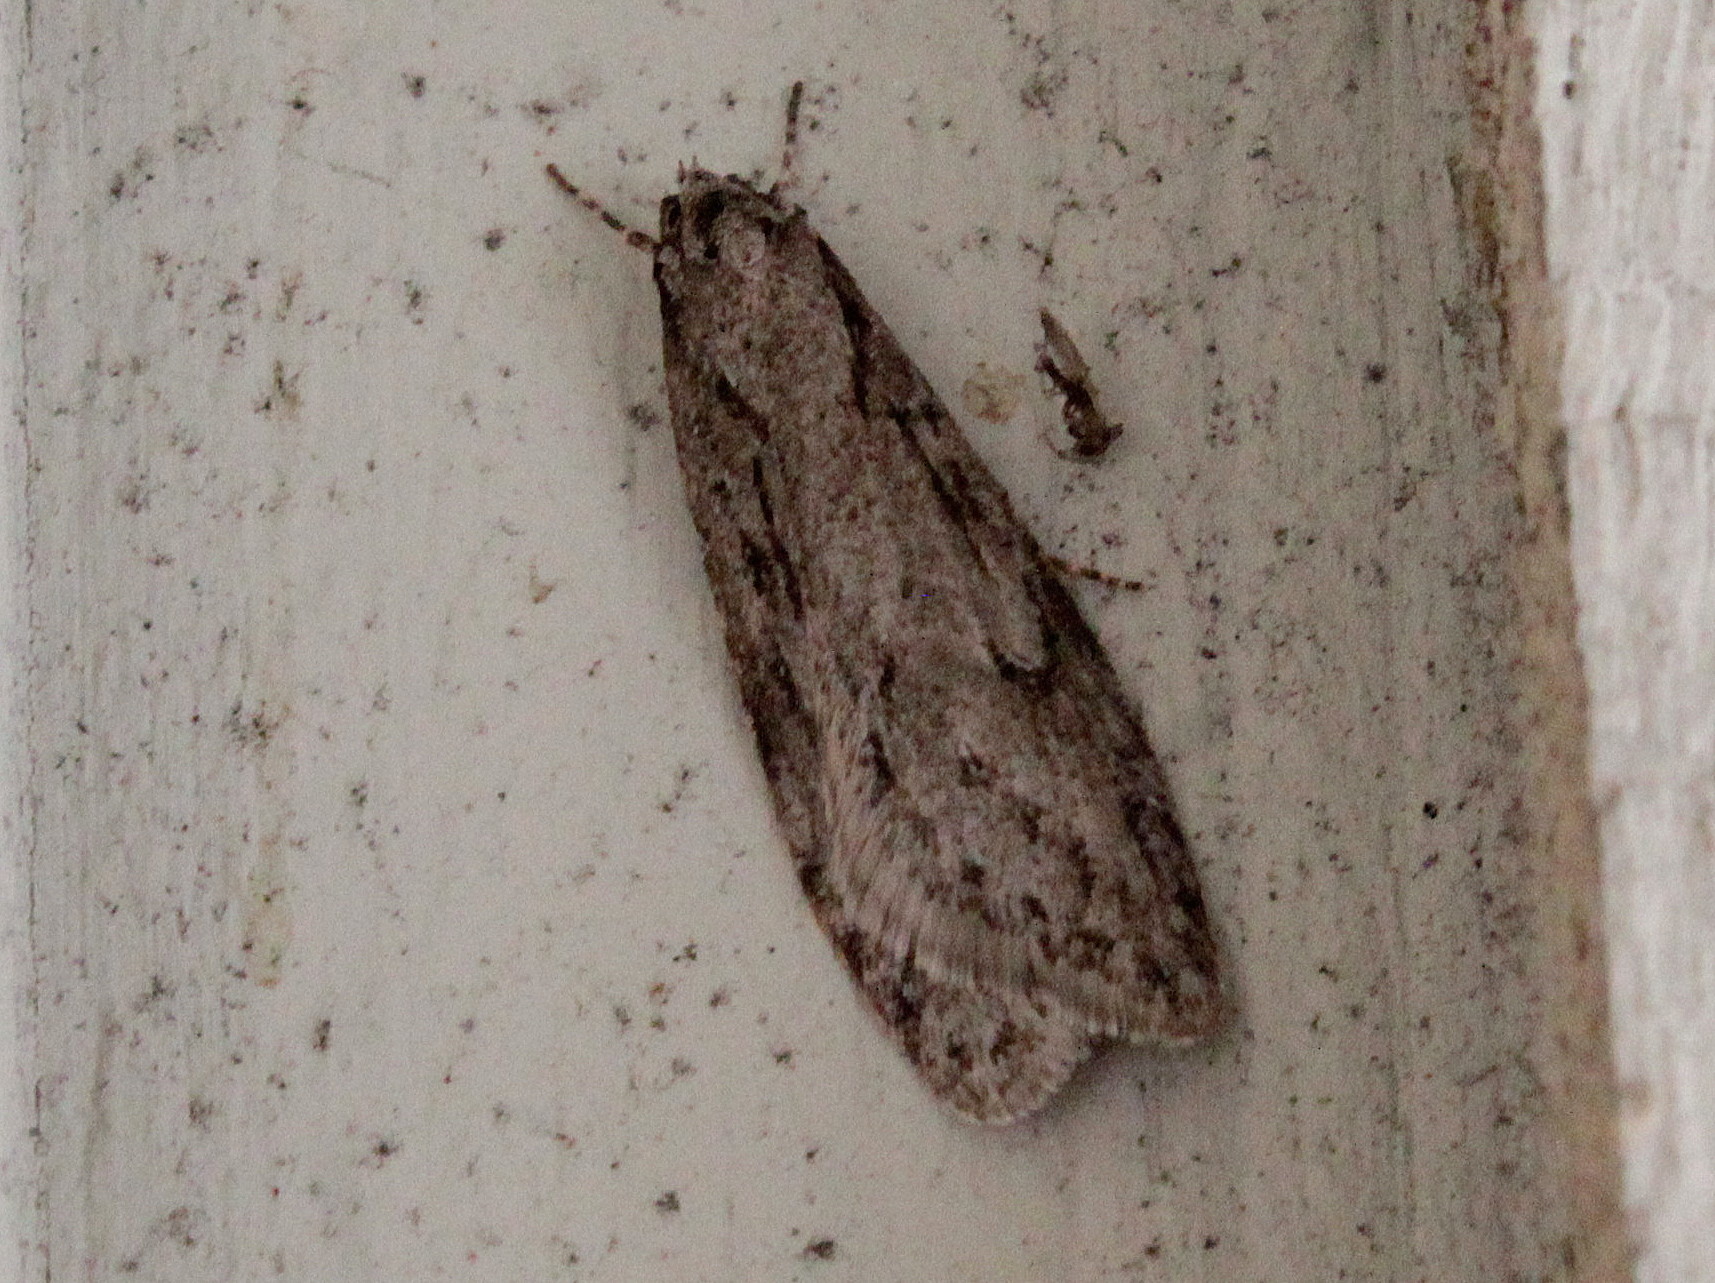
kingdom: Animalia
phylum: Arthropoda
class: Insecta
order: Lepidoptera
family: Depressariidae
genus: Semioscopis
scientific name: Semioscopis megamicrella
